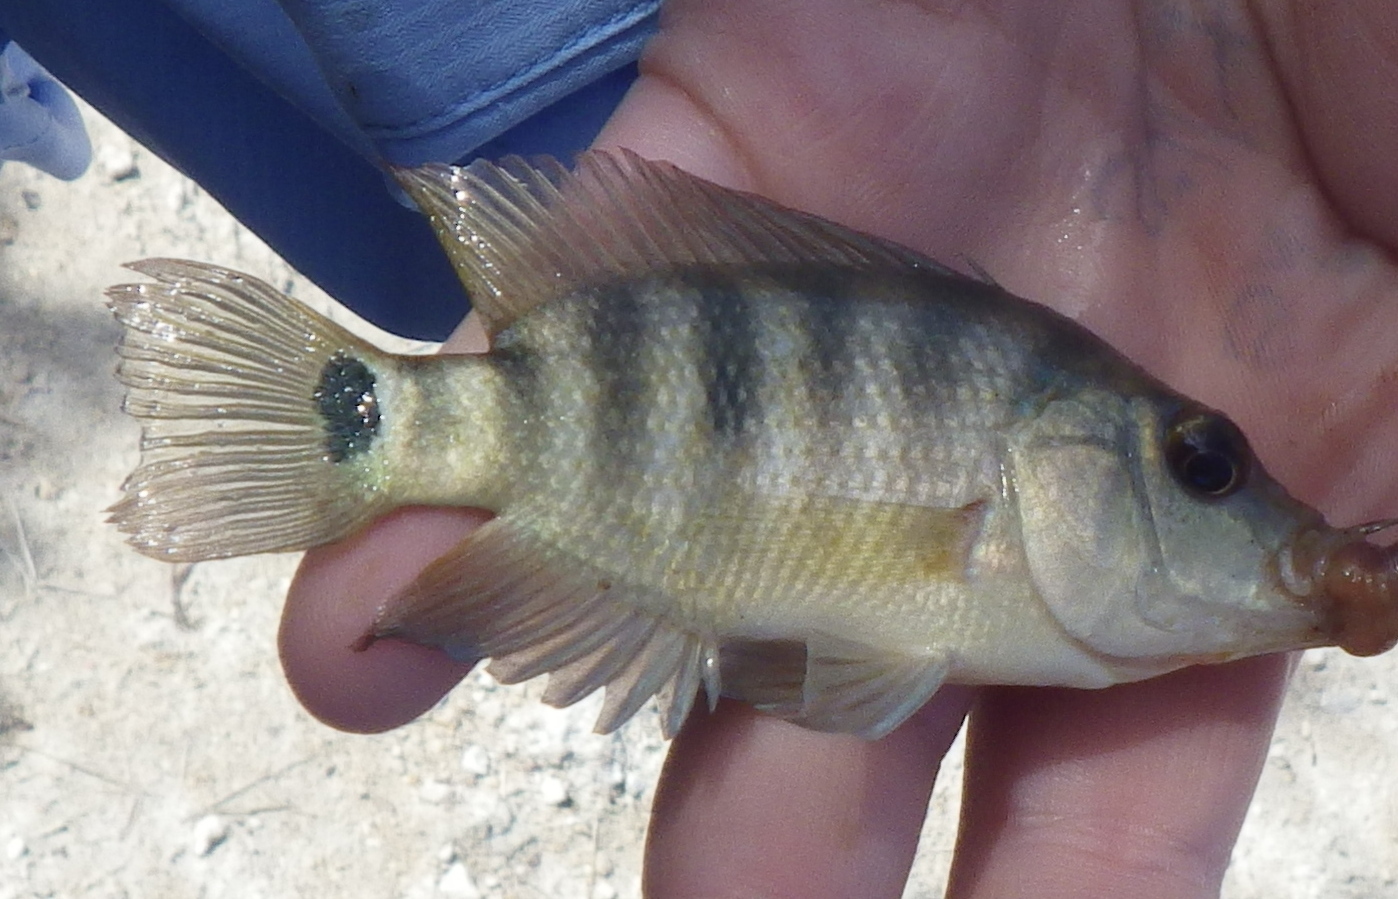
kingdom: Animalia
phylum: Chordata
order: Perciformes
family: Cichlidae
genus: Mayaheros
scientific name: Mayaheros urophthalmus
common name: Mayan cichlid
